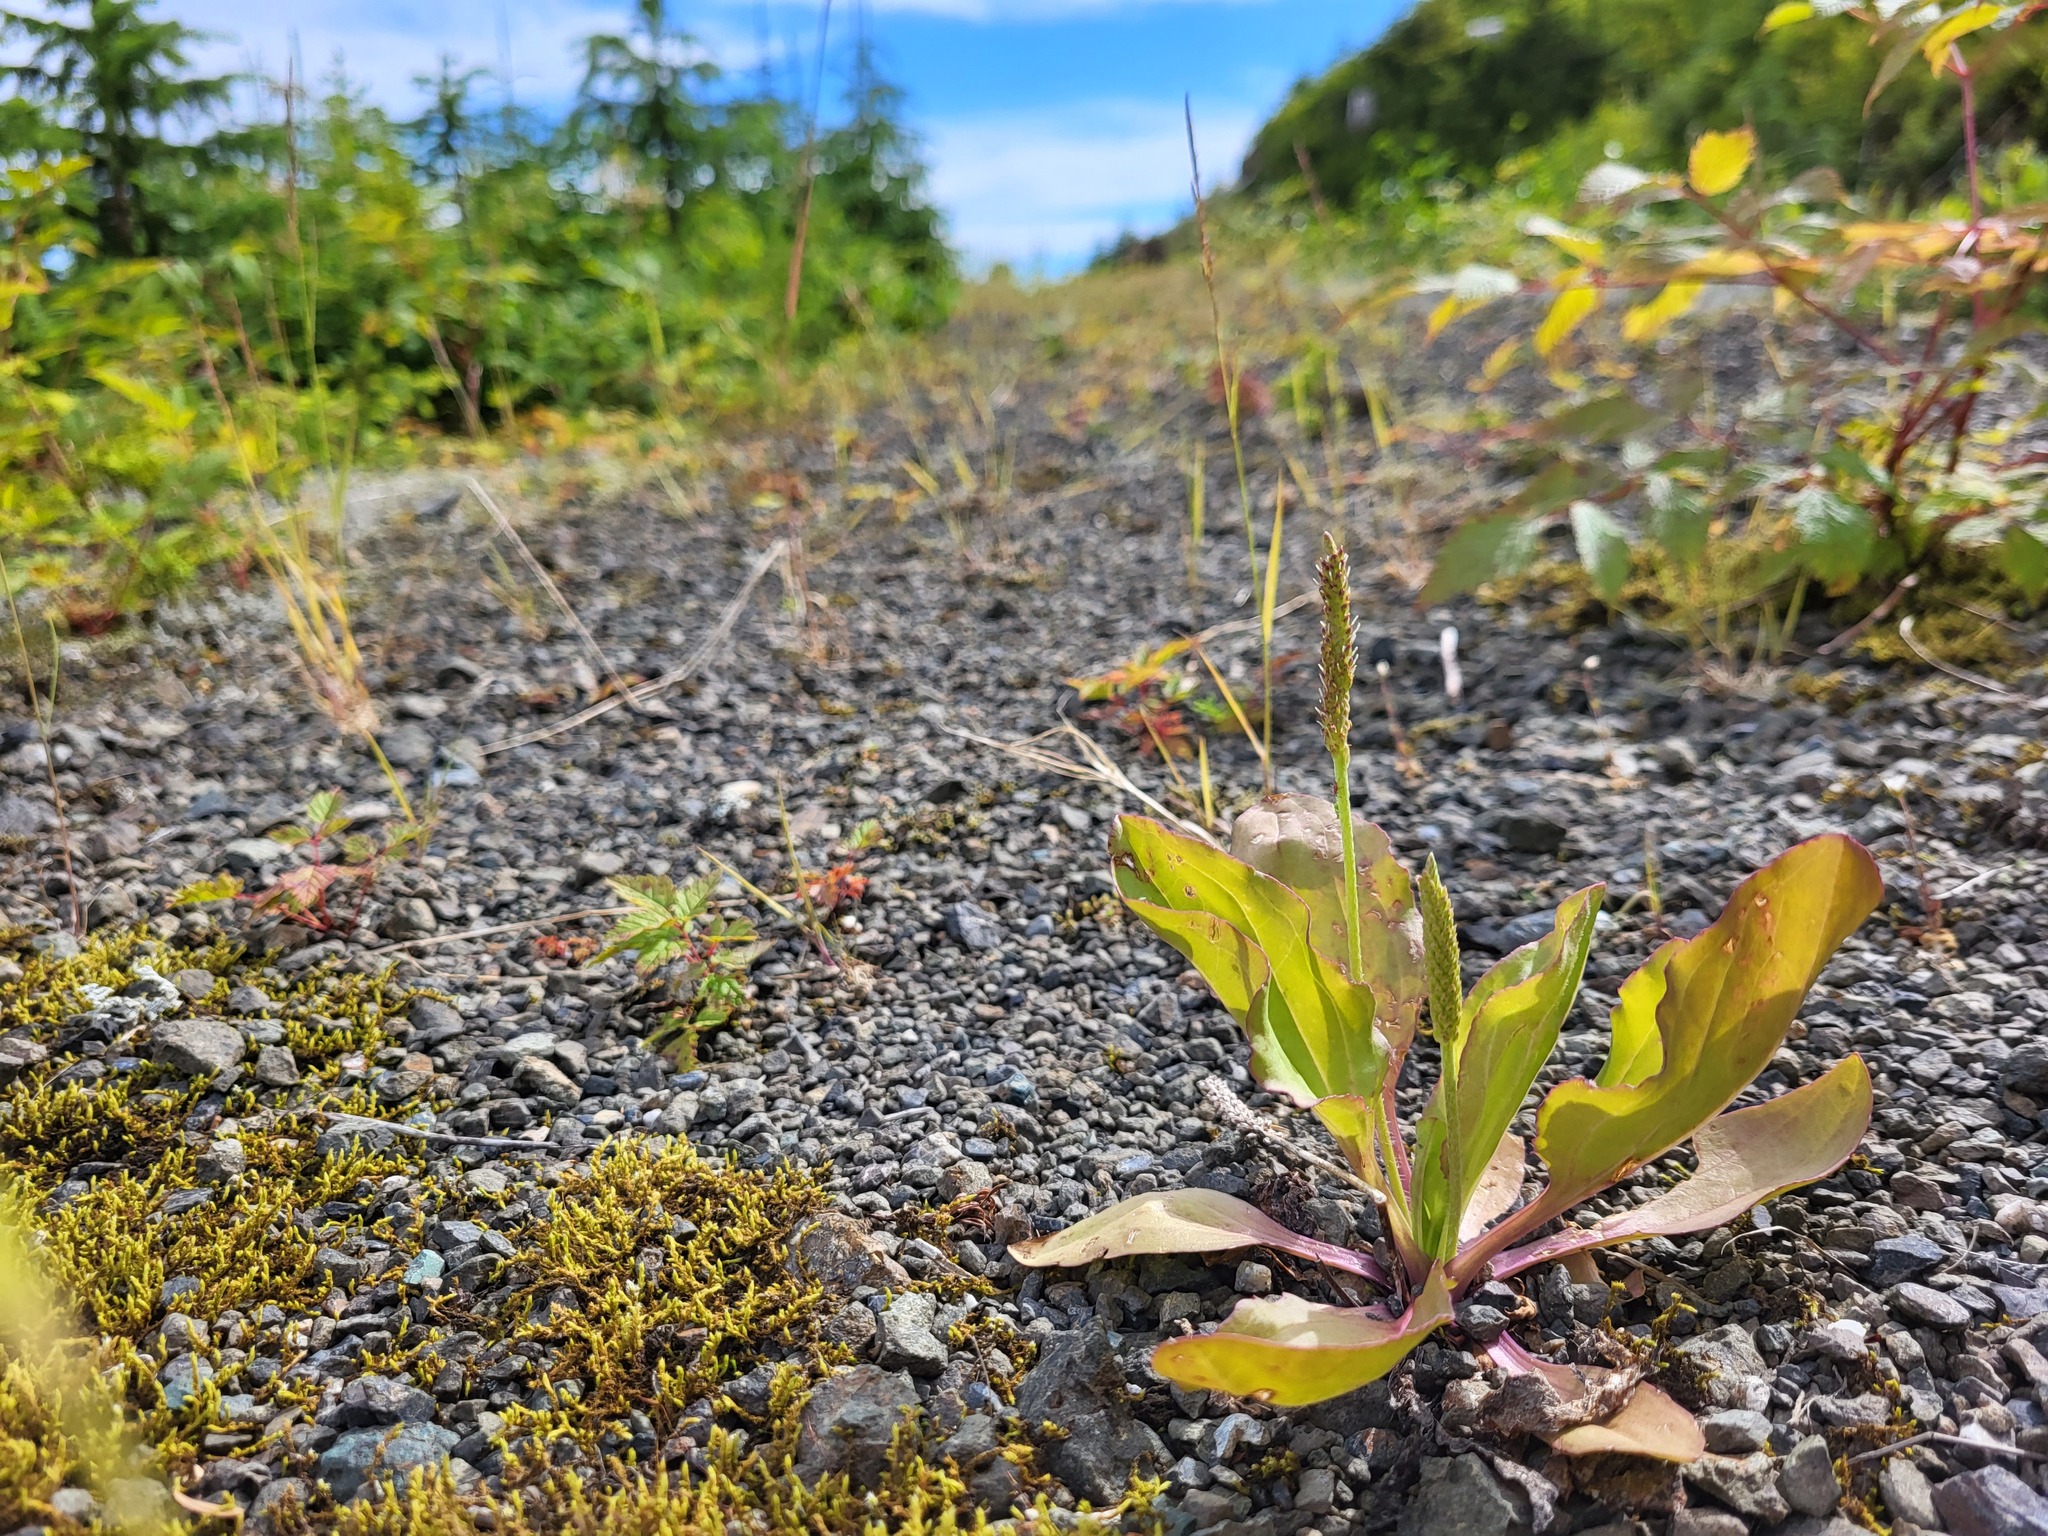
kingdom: Plantae
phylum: Tracheophyta
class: Magnoliopsida
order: Lamiales
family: Plantaginaceae
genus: Plantago
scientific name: Plantago major
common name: Common plantain
